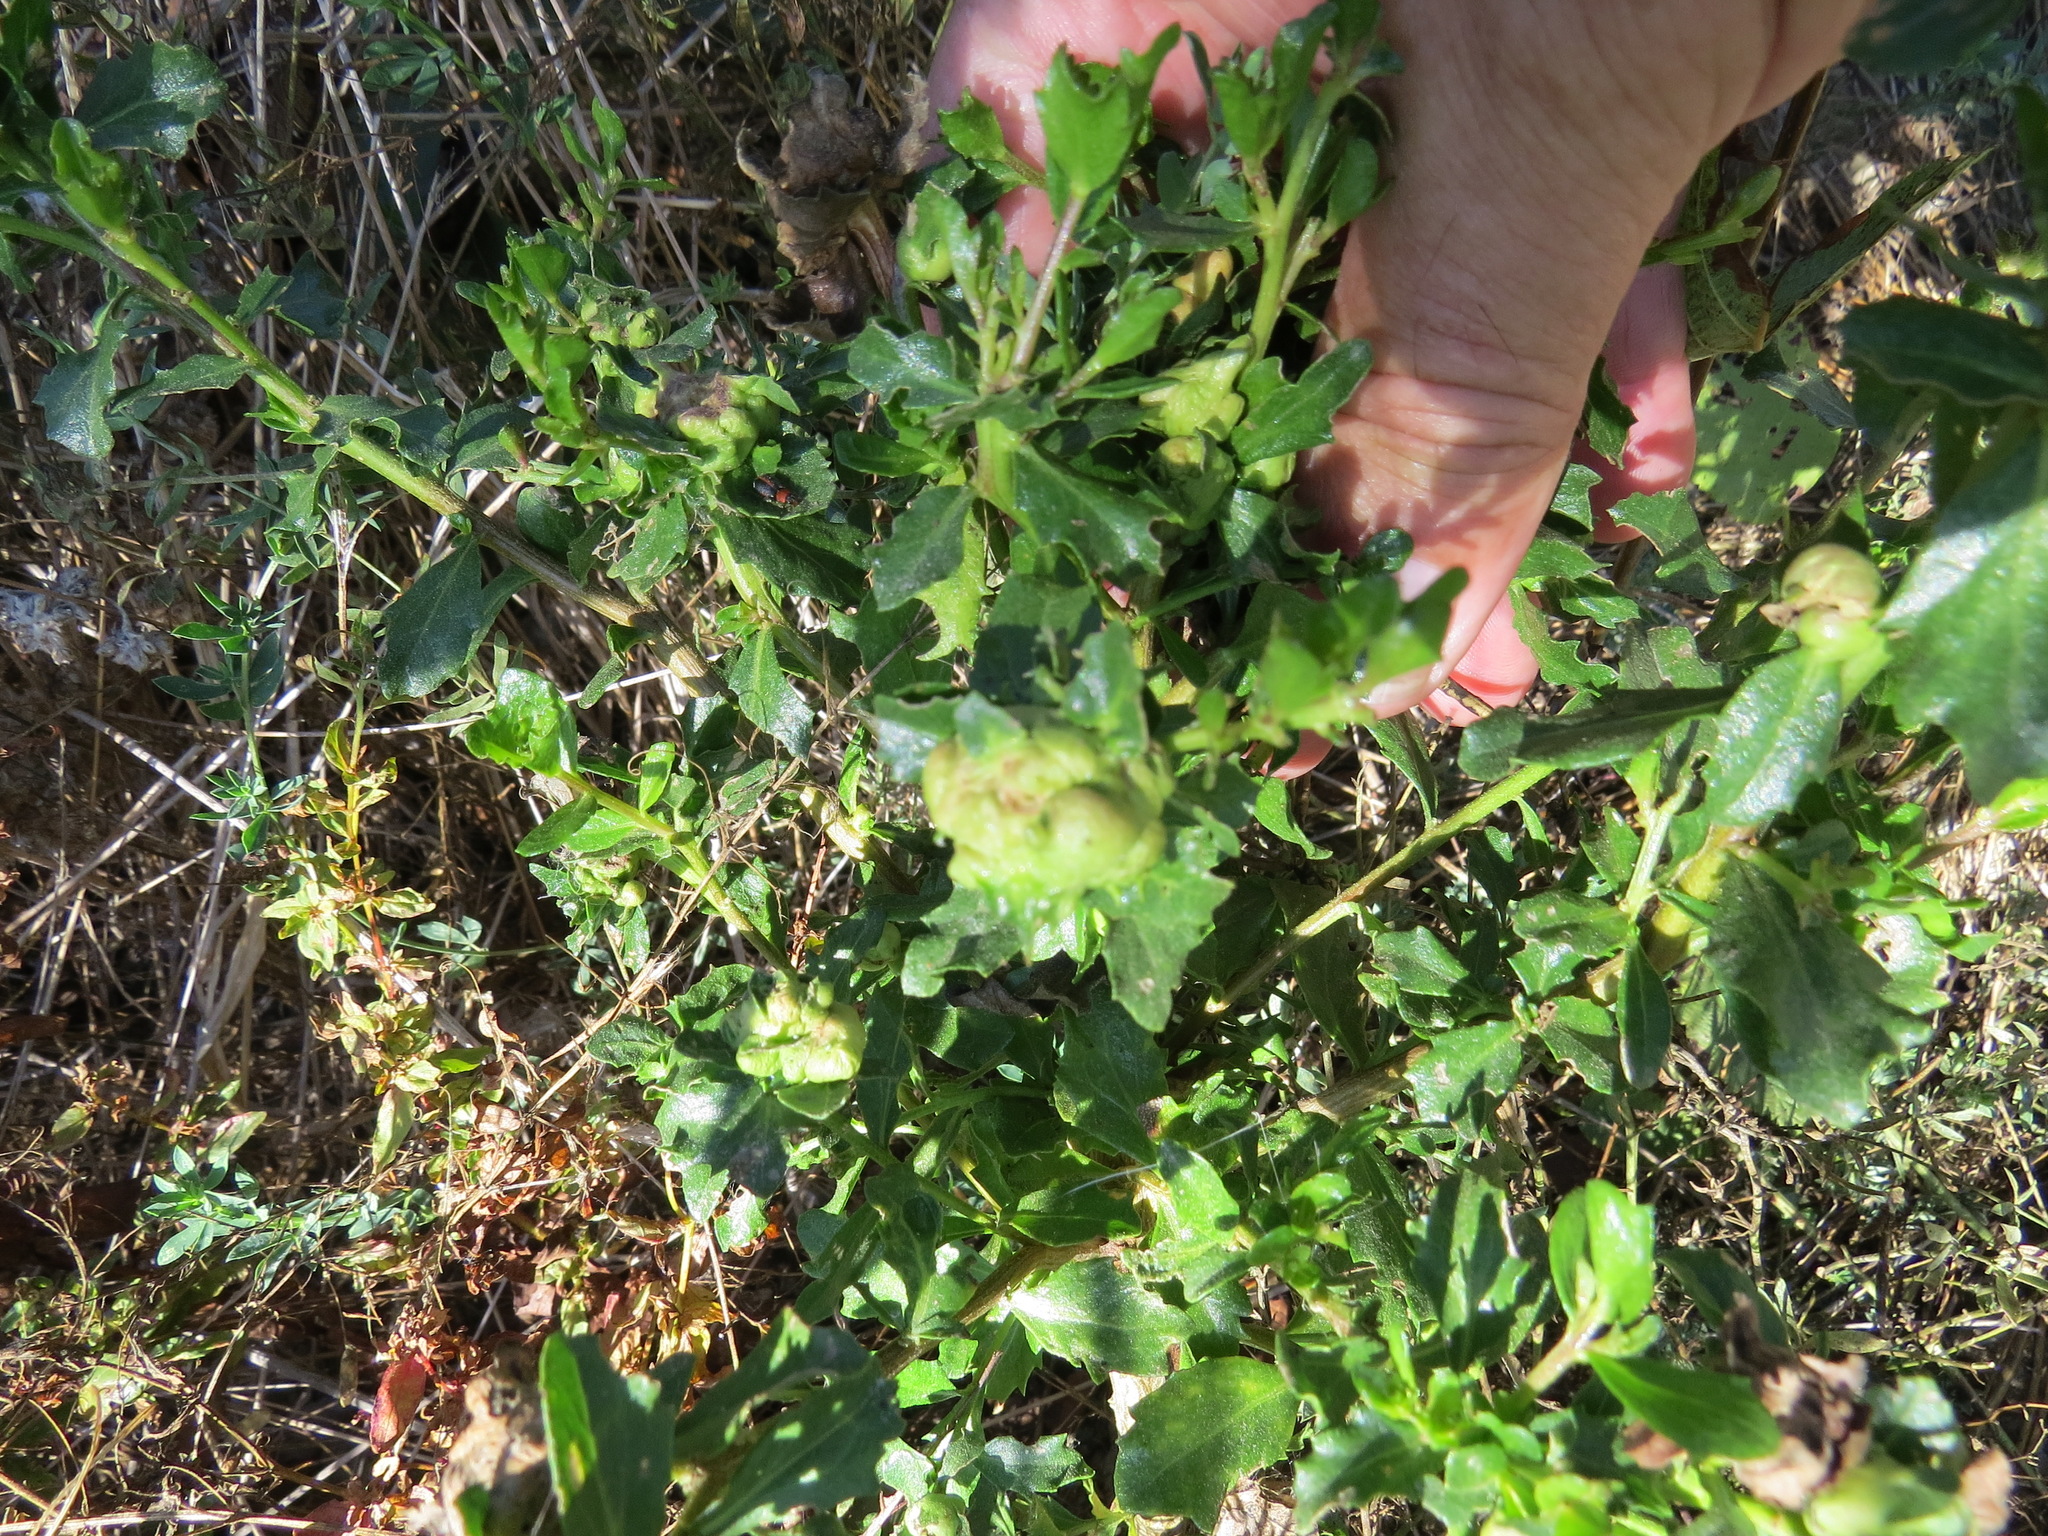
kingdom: Animalia
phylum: Arthropoda
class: Insecta
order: Diptera
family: Cecidomyiidae
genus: Rhopalomyia
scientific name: Rhopalomyia californica
